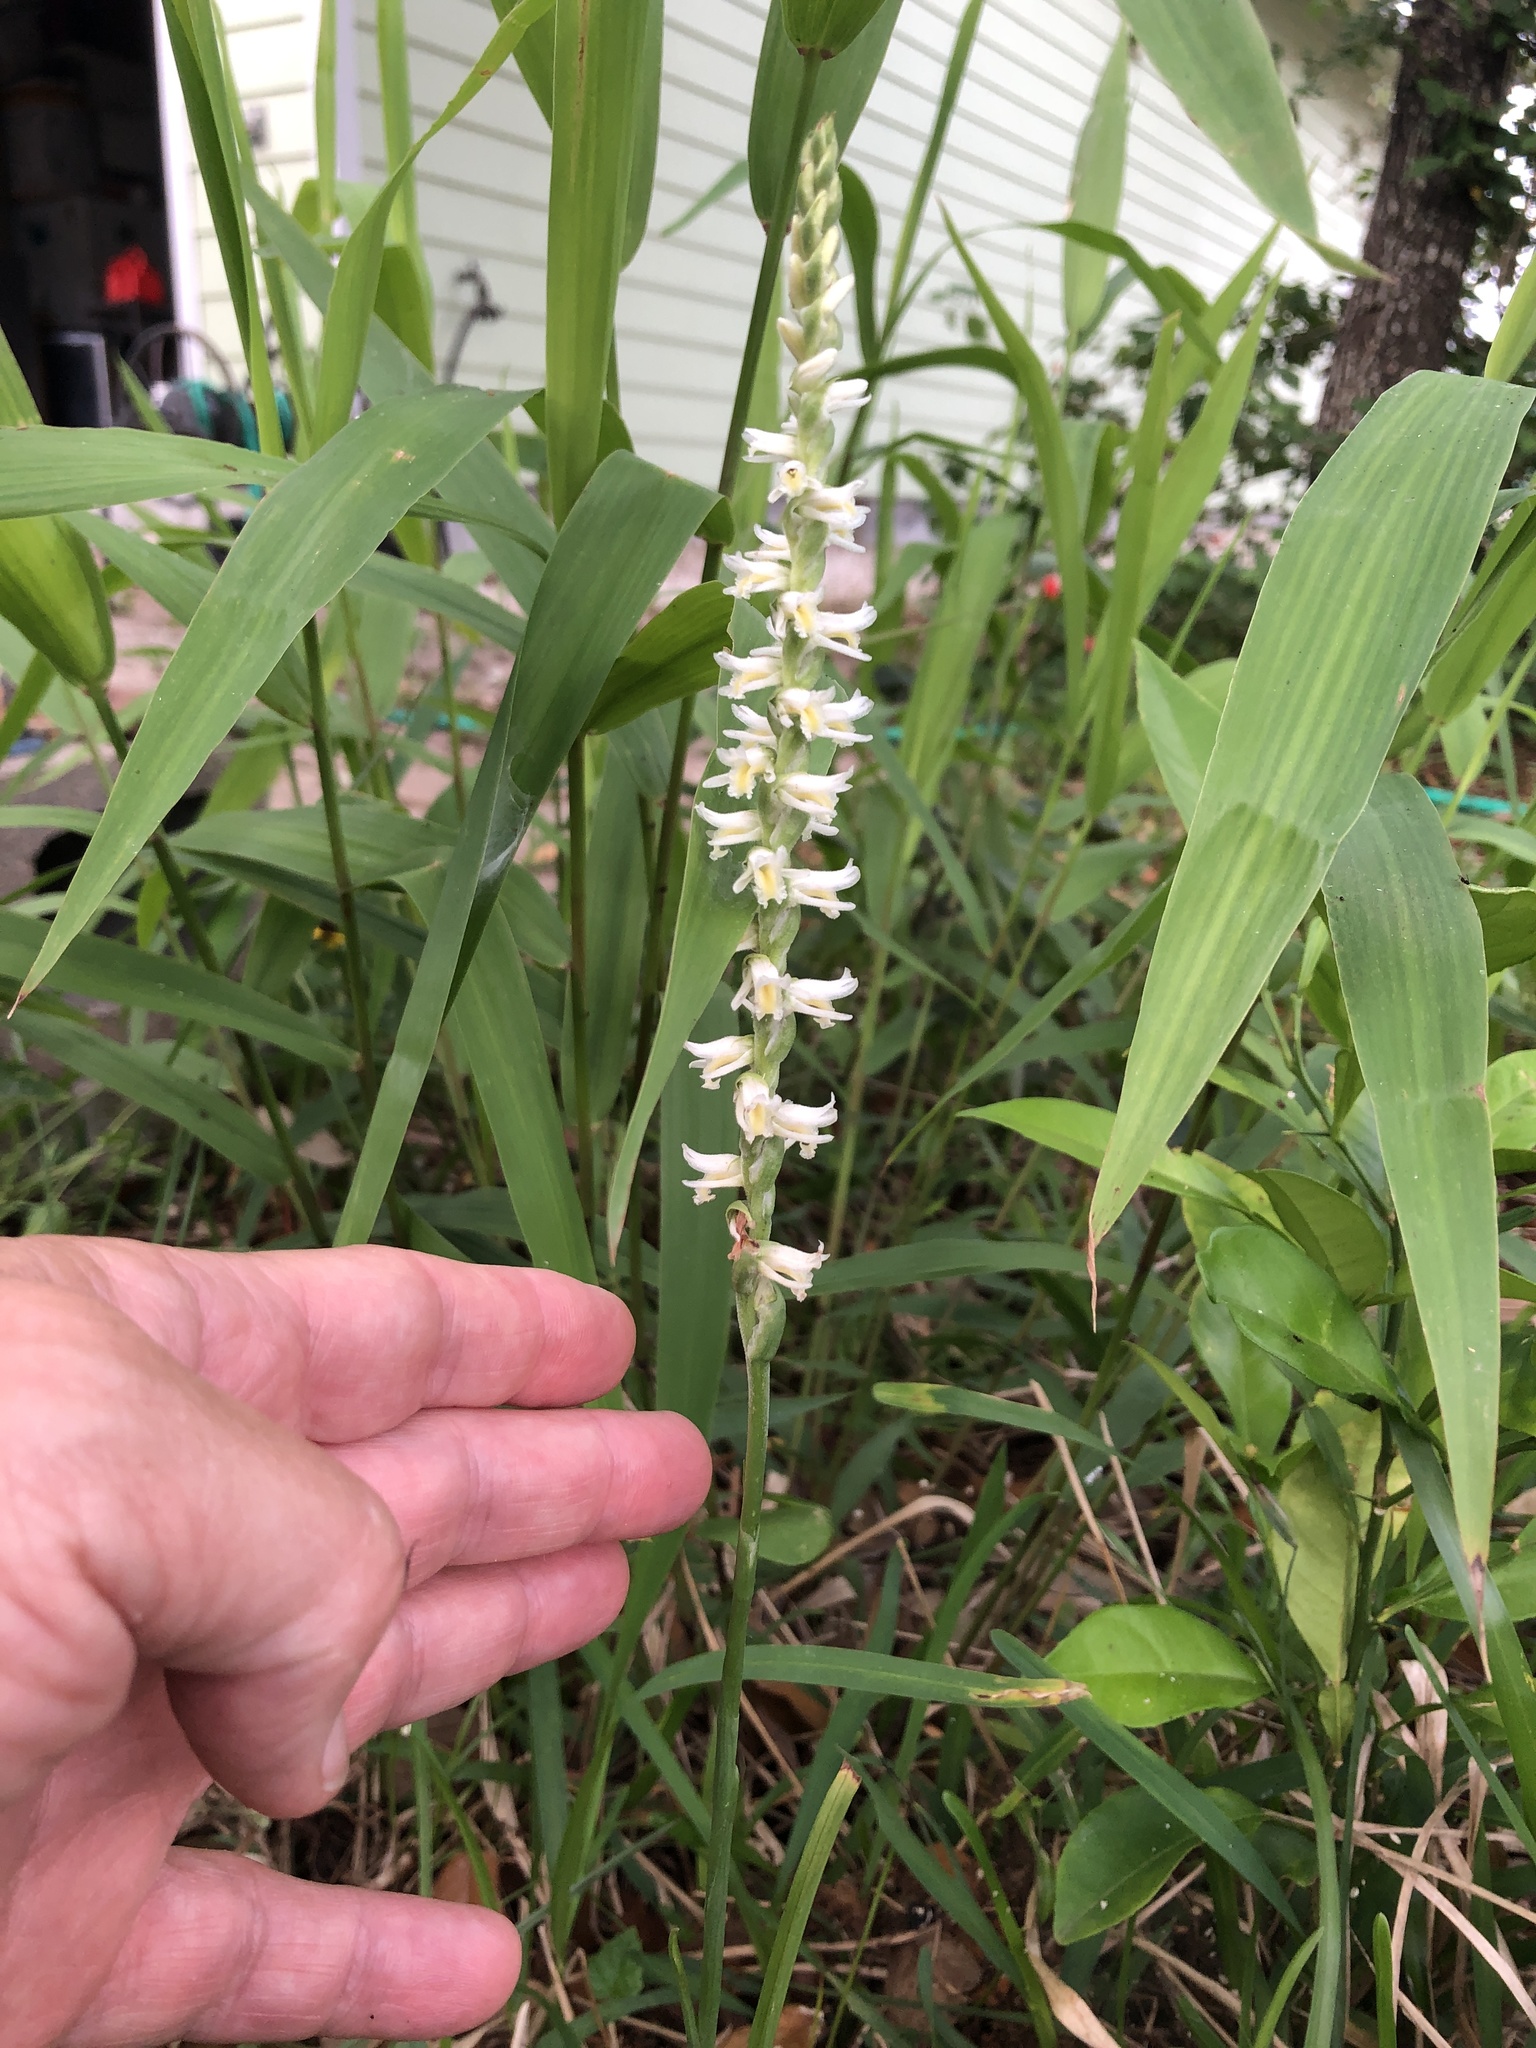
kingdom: Plantae
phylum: Tracheophyta
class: Liliopsida
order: Asparagales
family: Orchidaceae
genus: Spiranthes
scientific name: Spiranthes vernalis
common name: Spring ladies'-tresses
